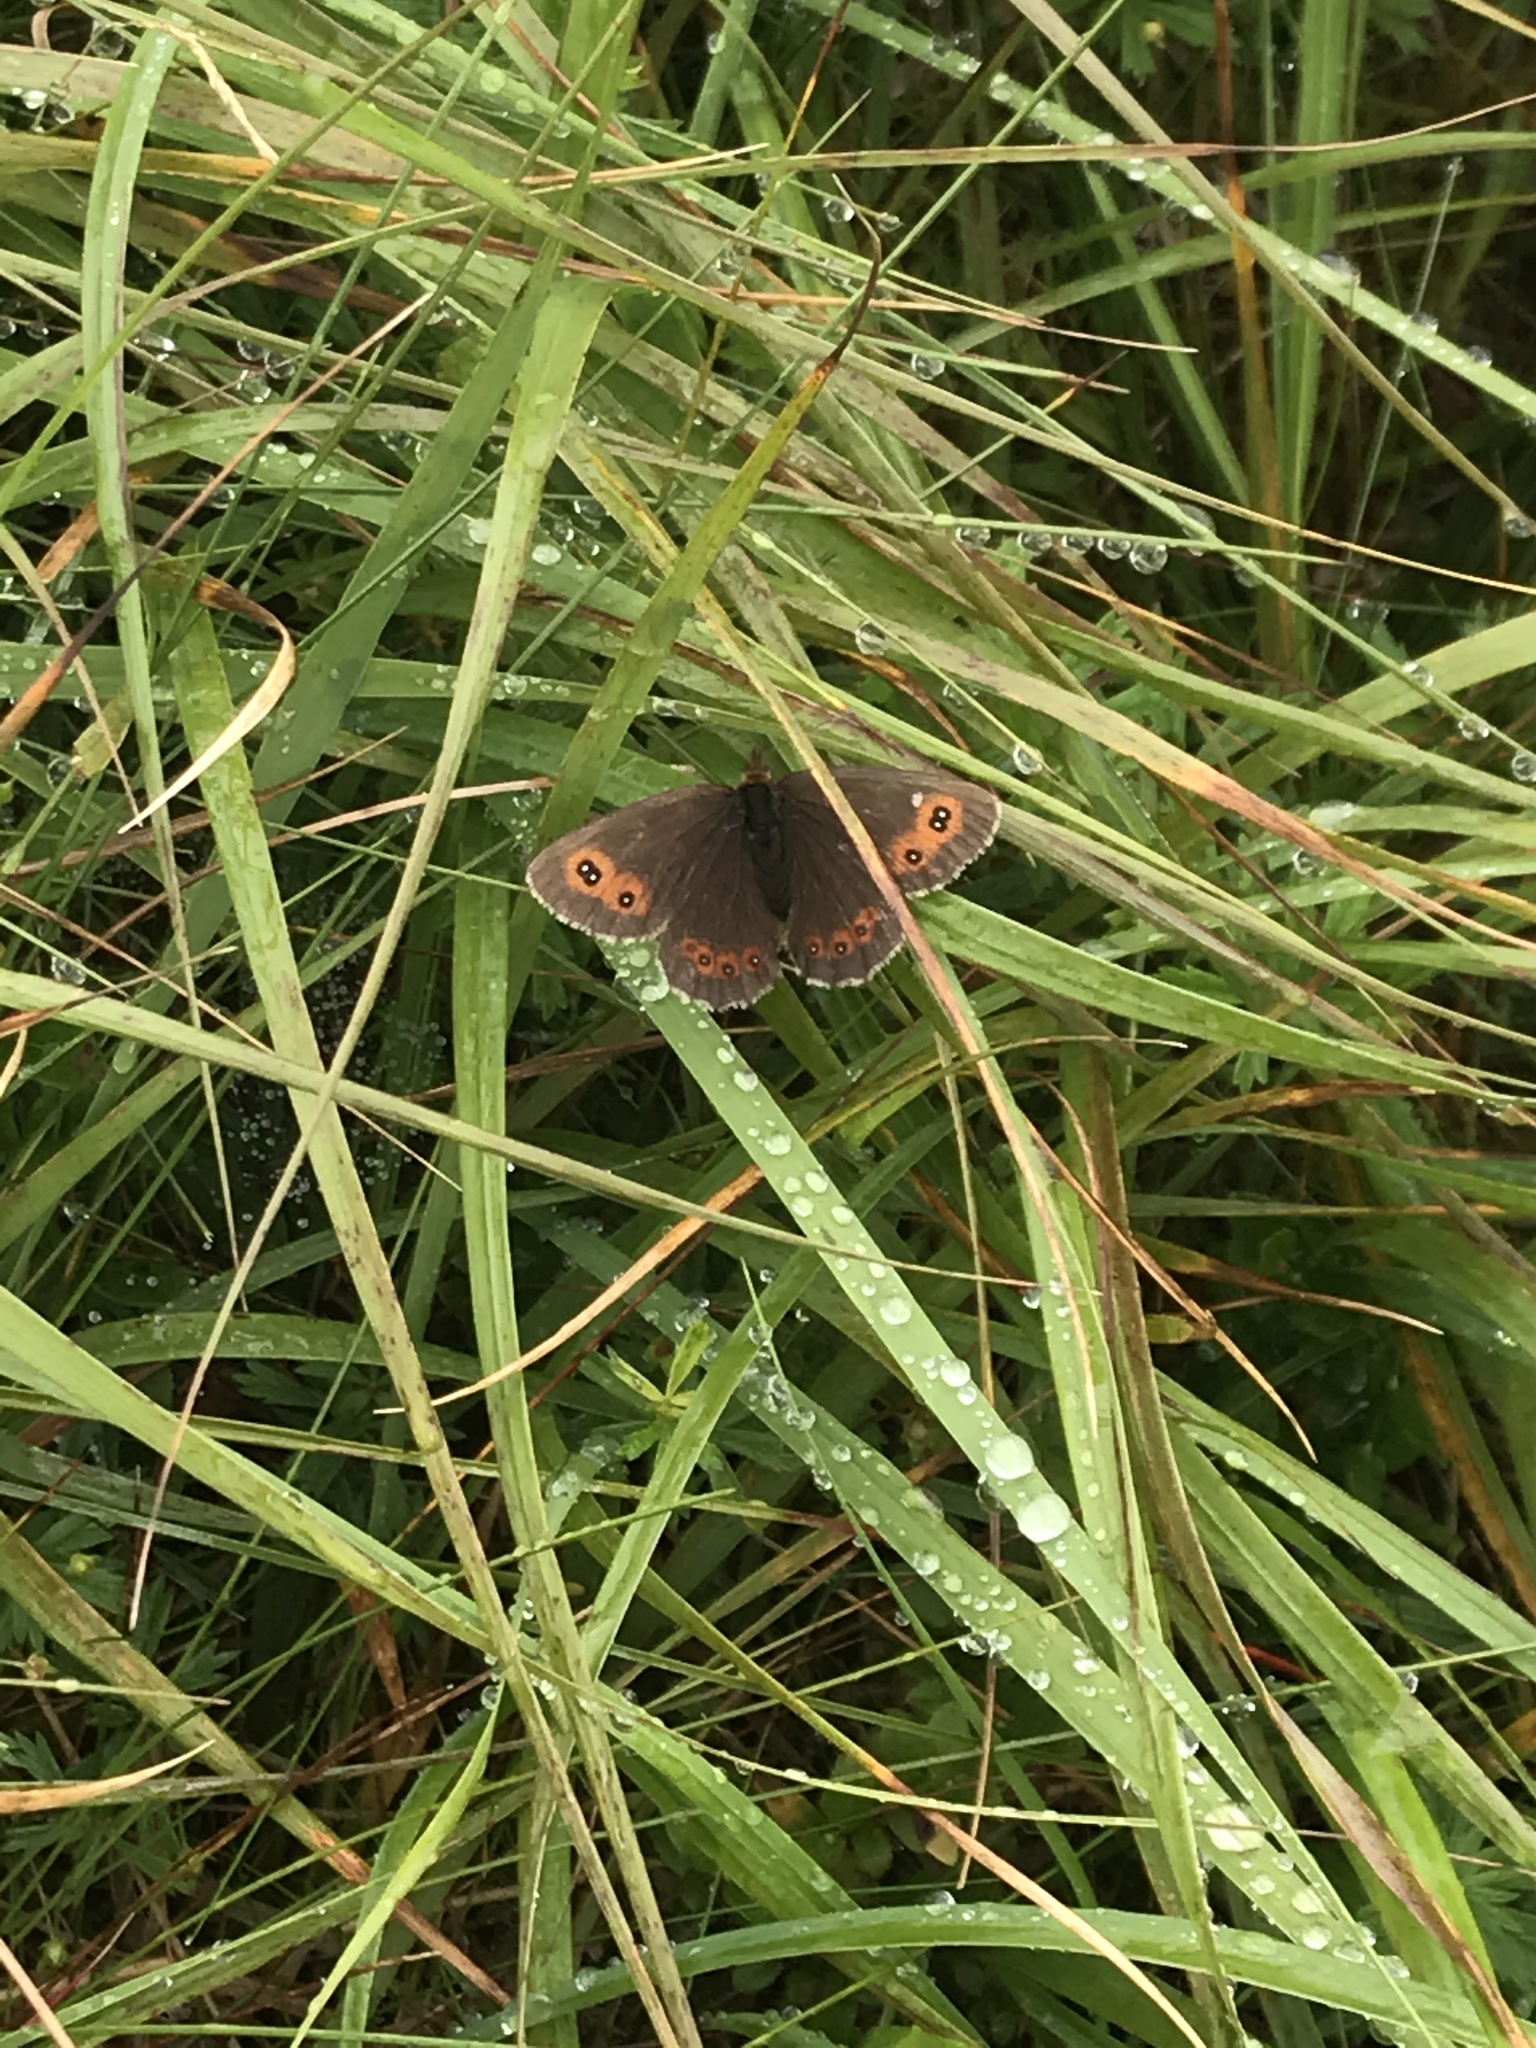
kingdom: Animalia
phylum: Arthropoda
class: Insecta
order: Lepidoptera
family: Nymphalidae
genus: Erebia
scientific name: Erebia aethiops
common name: Scotch argus
